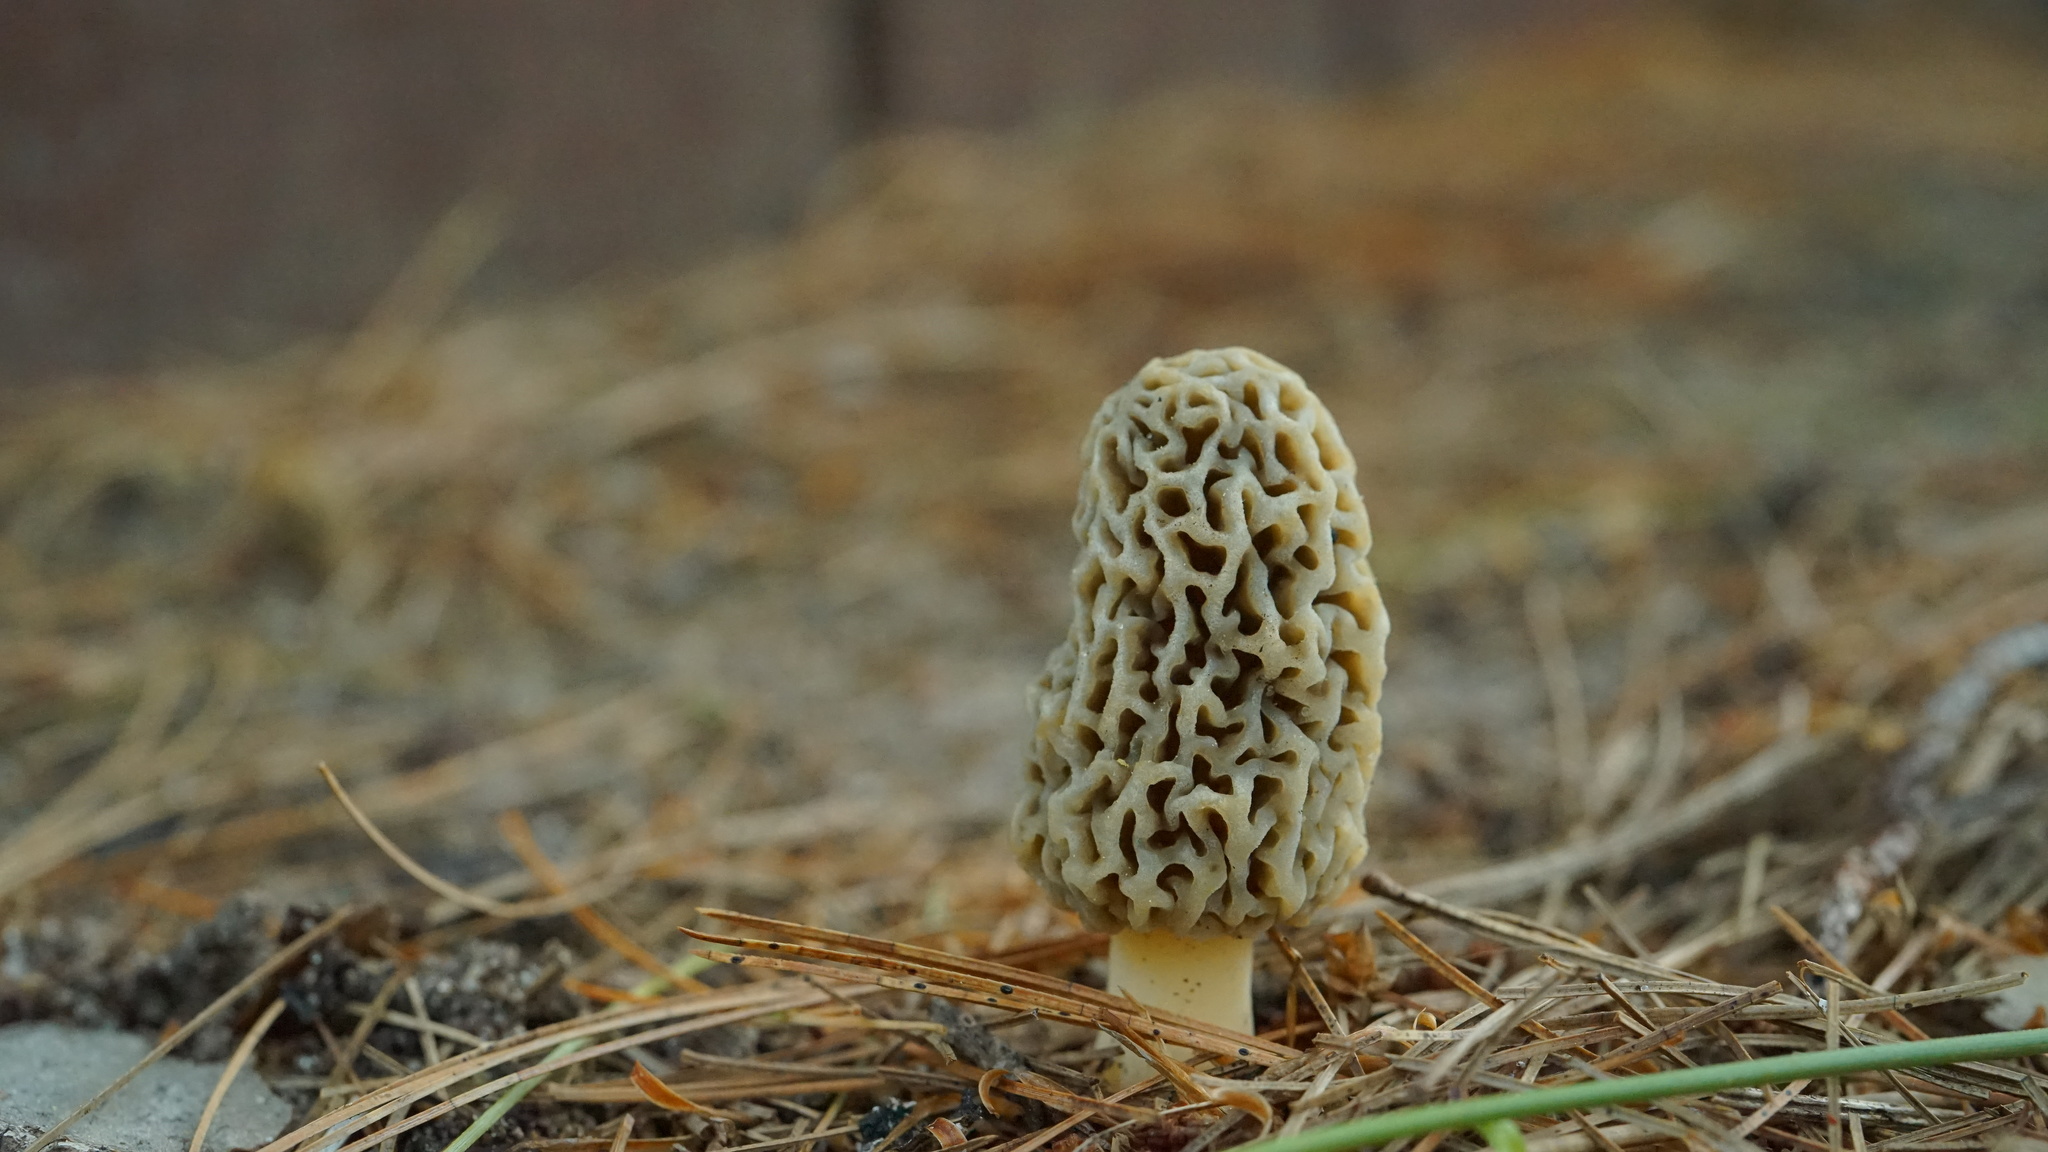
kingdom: Fungi
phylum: Ascomycota
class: Pezizomycetes
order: Pezizales
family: Morchellaceae
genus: Morchella
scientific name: Morchella americana
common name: White morel
